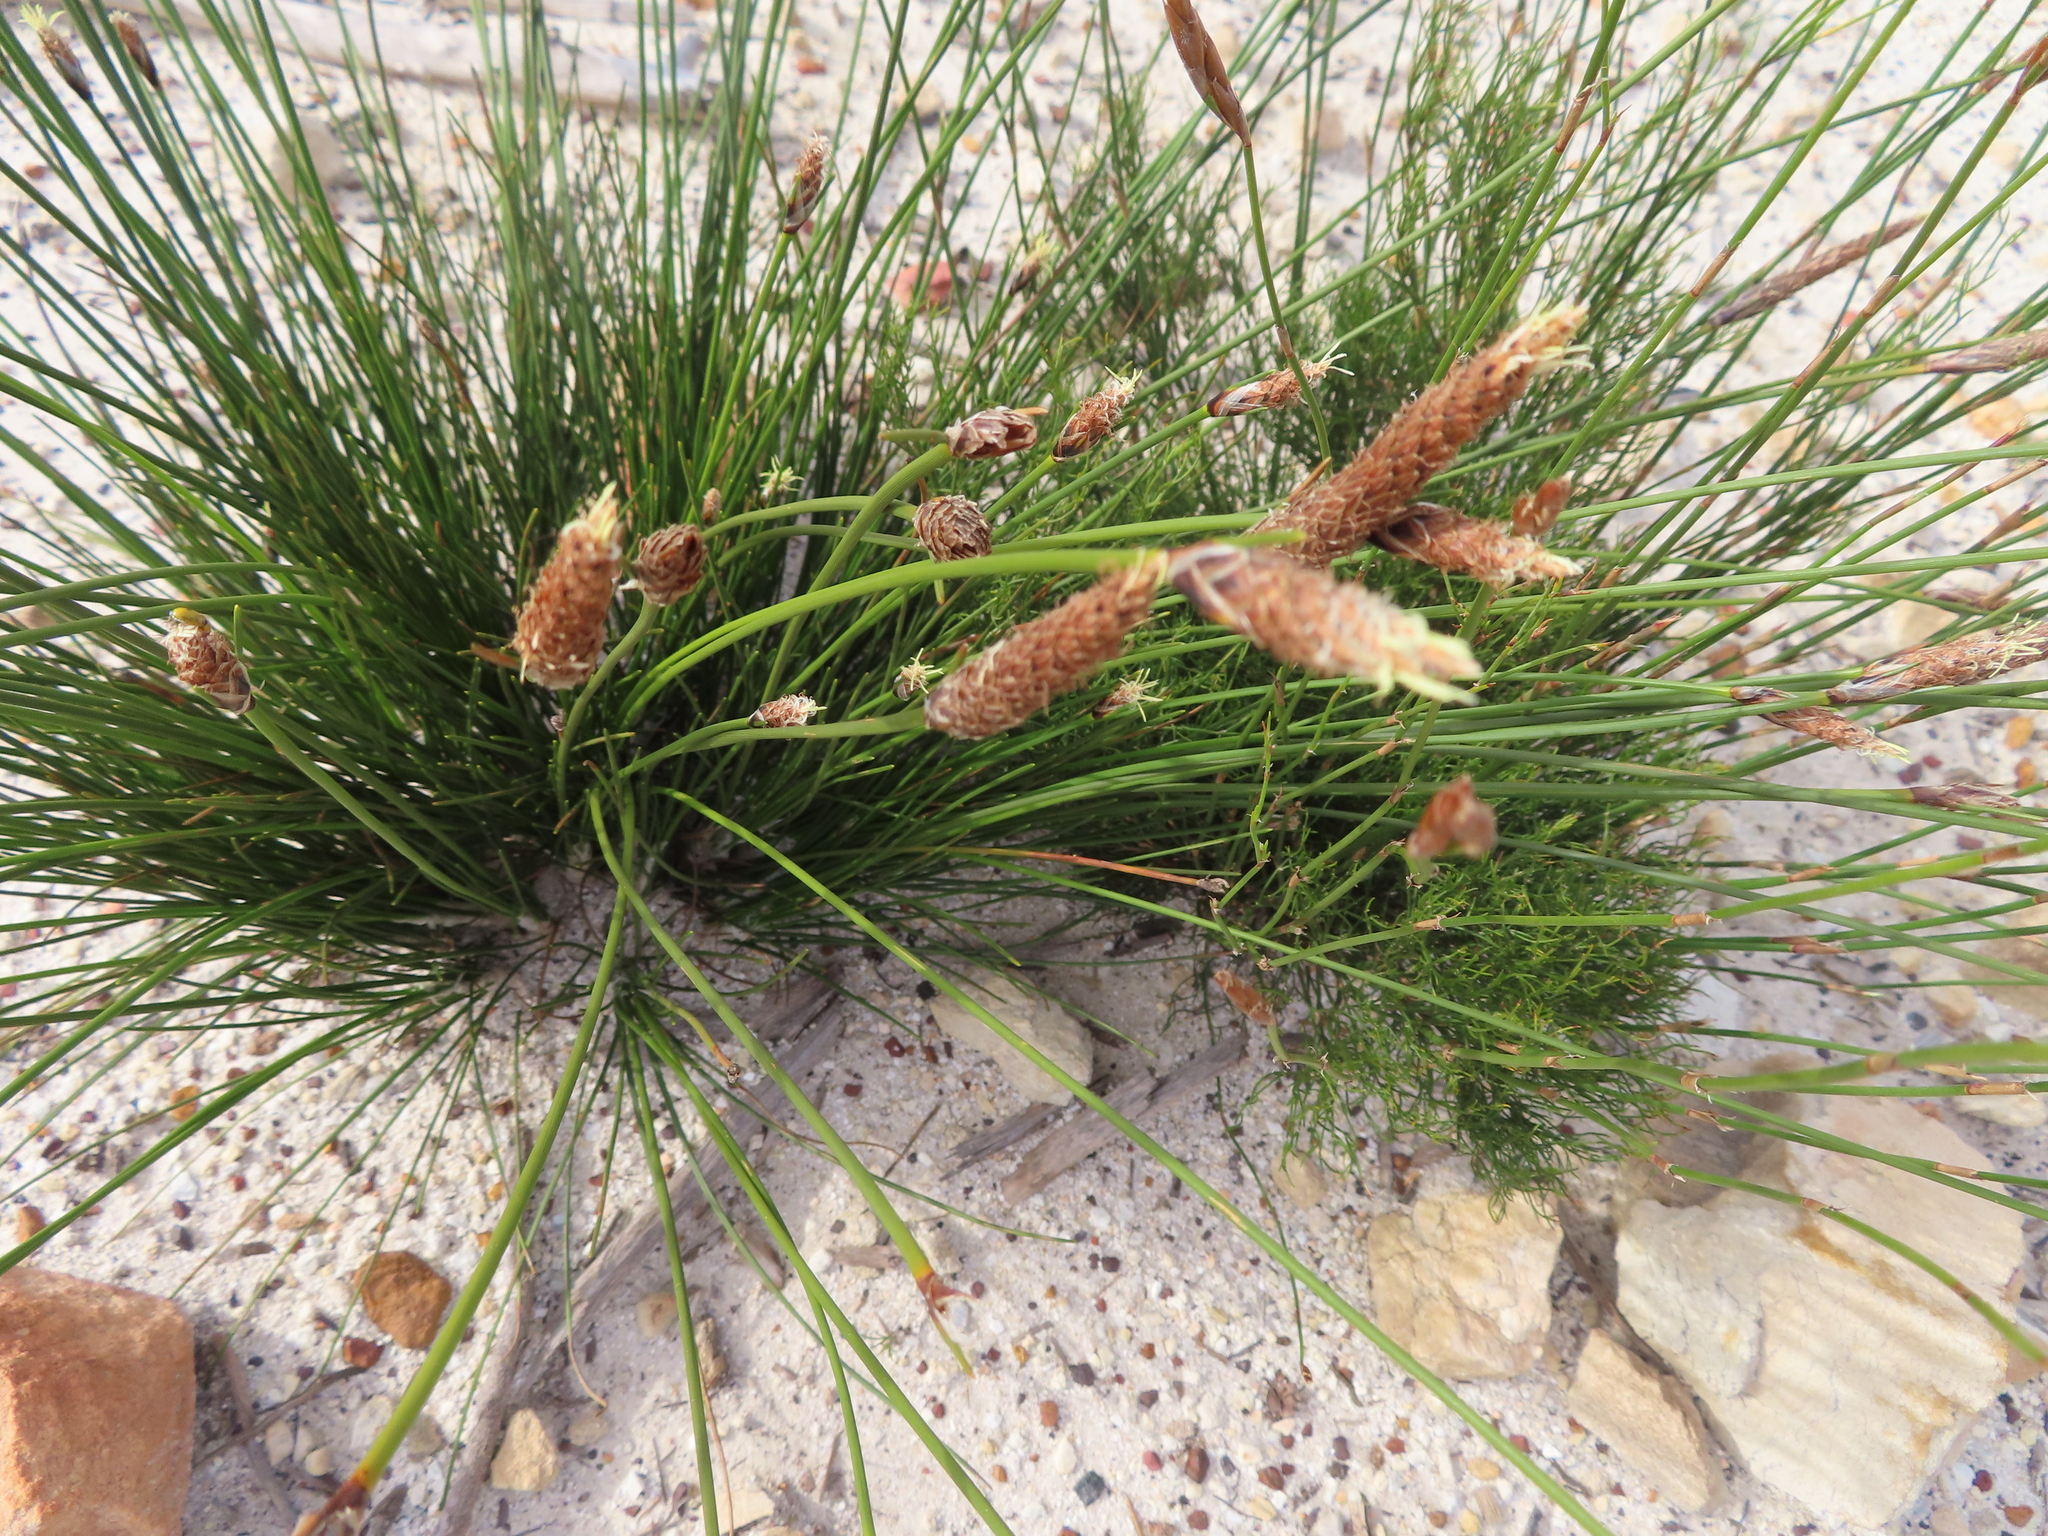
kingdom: Plantae
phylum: Tracheophyta
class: Liliopsida
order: Poales
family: Cyperaceae
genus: Ficinia
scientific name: Ficinia deusta
